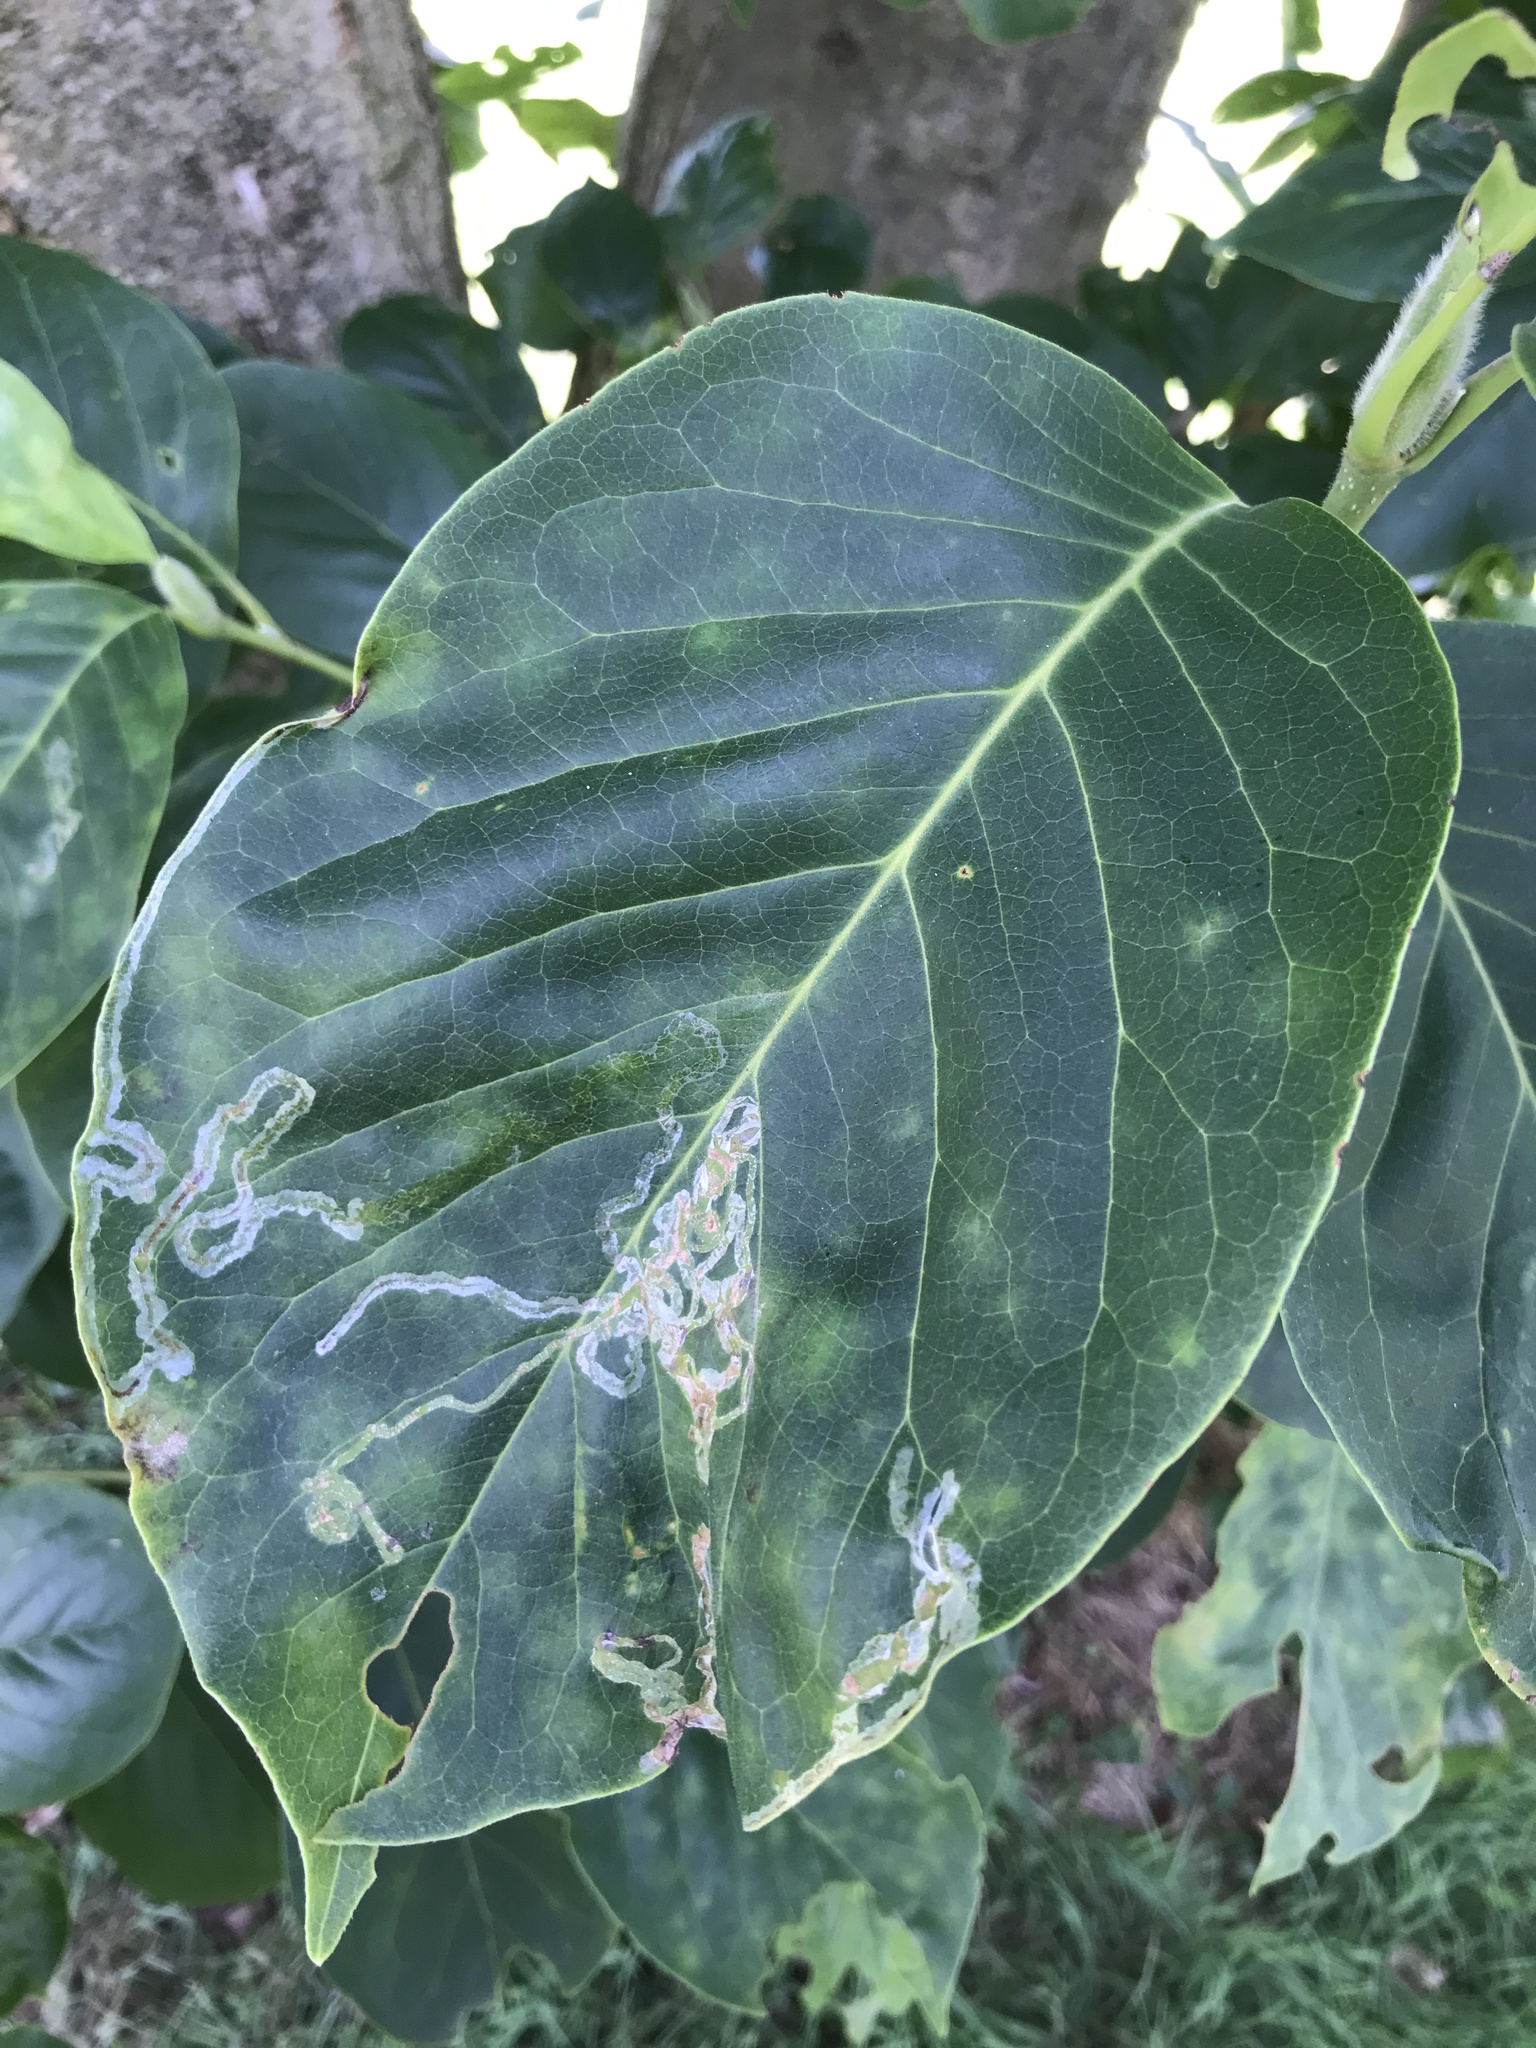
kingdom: Animalia
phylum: Arthropoda
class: Insecta
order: Lepidoptera
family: Gracillariidae
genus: Phyllocnistis
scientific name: Phyllocnistis liriodendronella
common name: Tulip tree leaf miner
